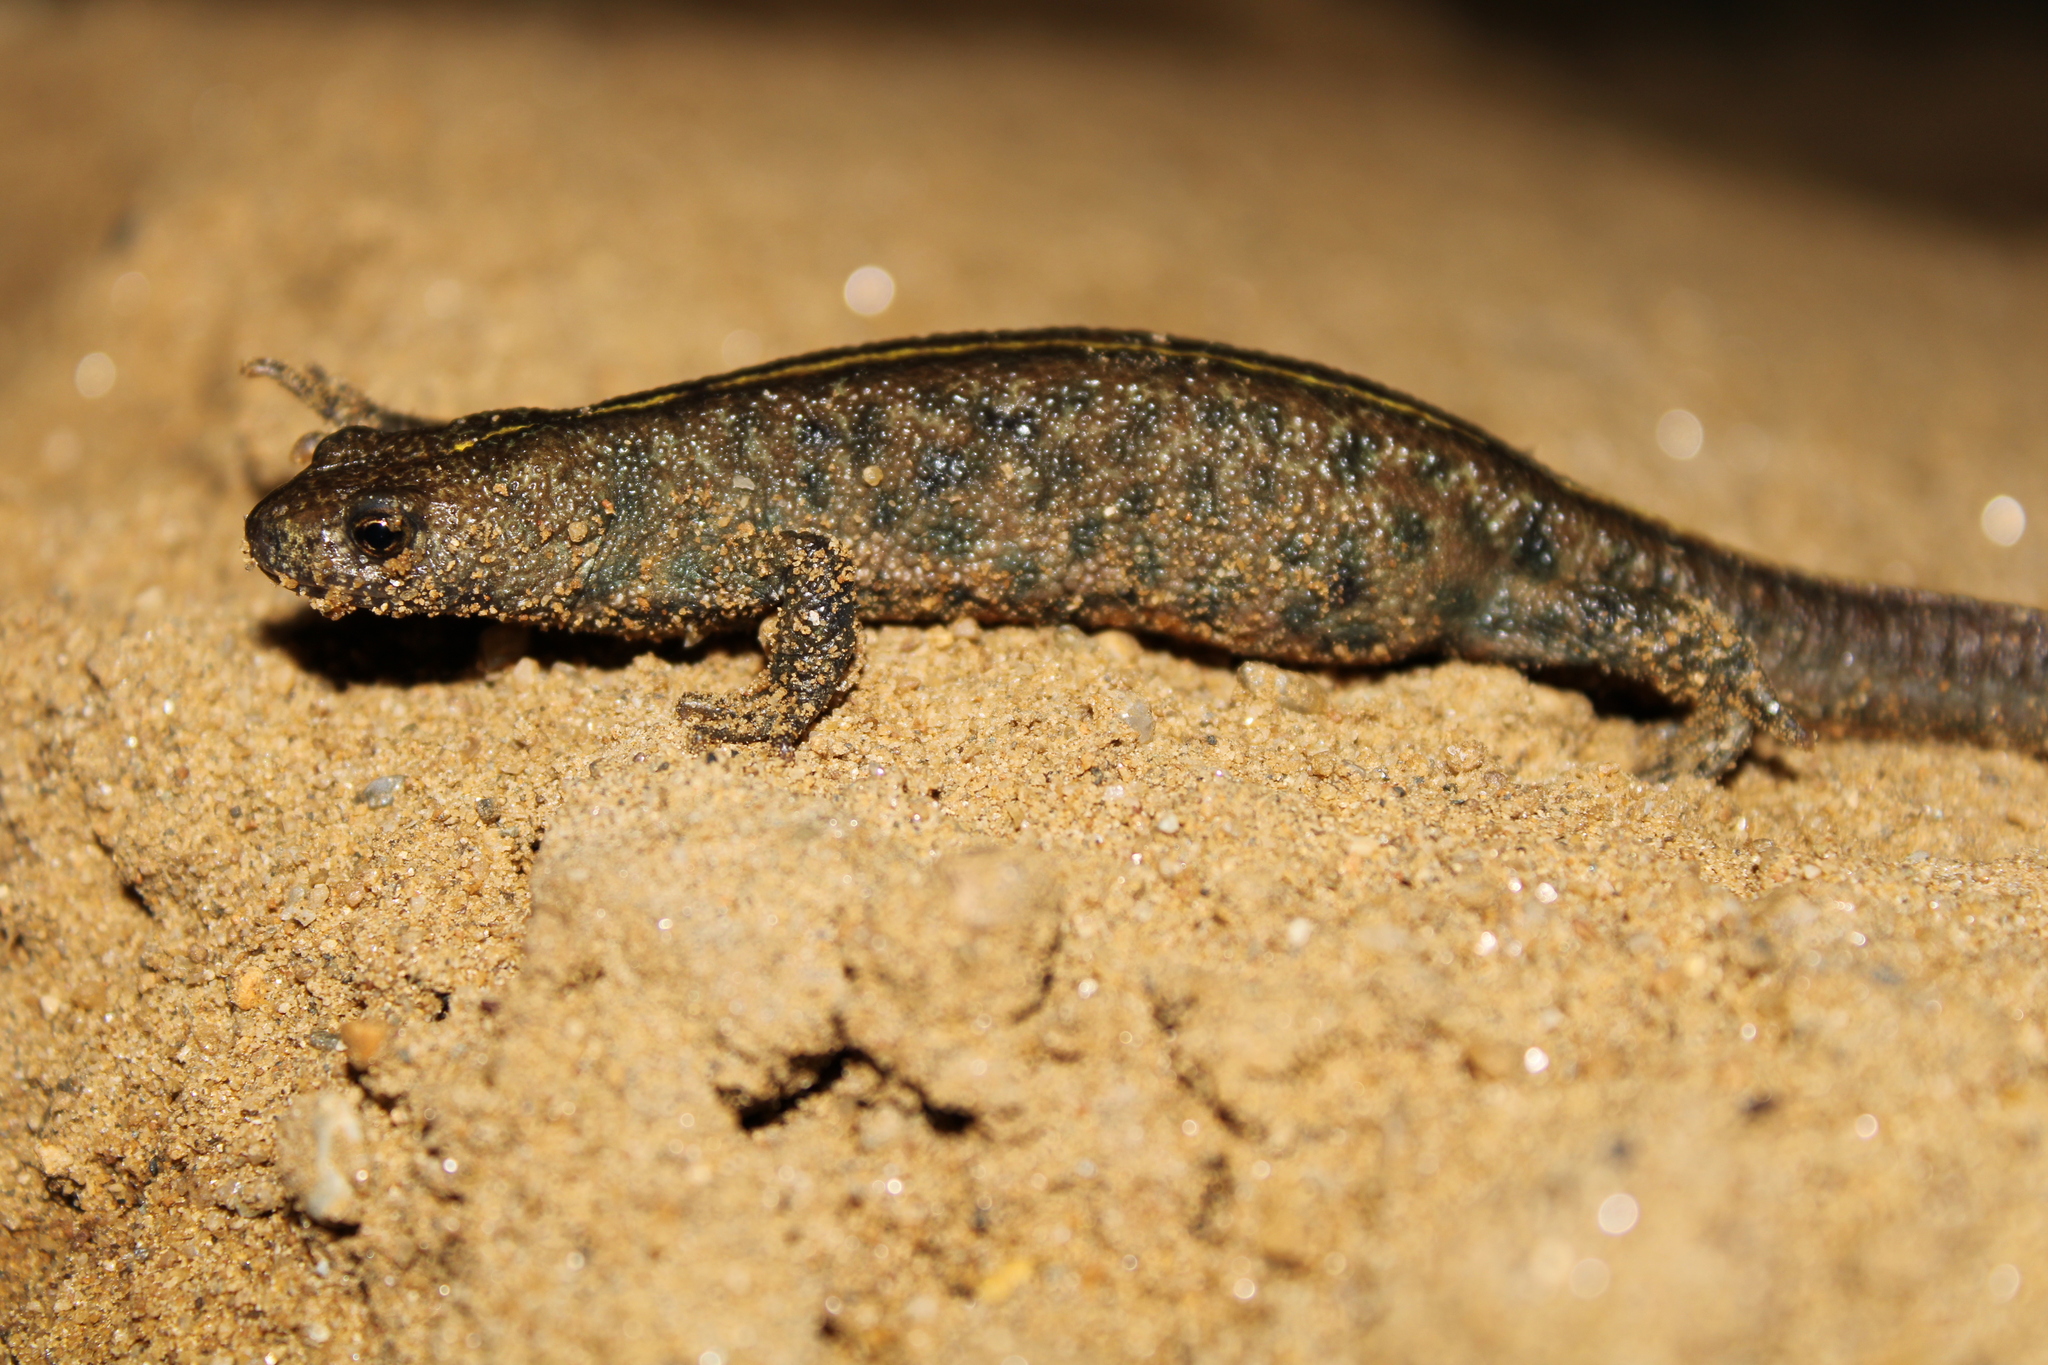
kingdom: Animalia
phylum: Chordata
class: Amphibia
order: Caudata
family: Salamandridae
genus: Triturus
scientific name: Triturus carnifex
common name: Italian crested newt
